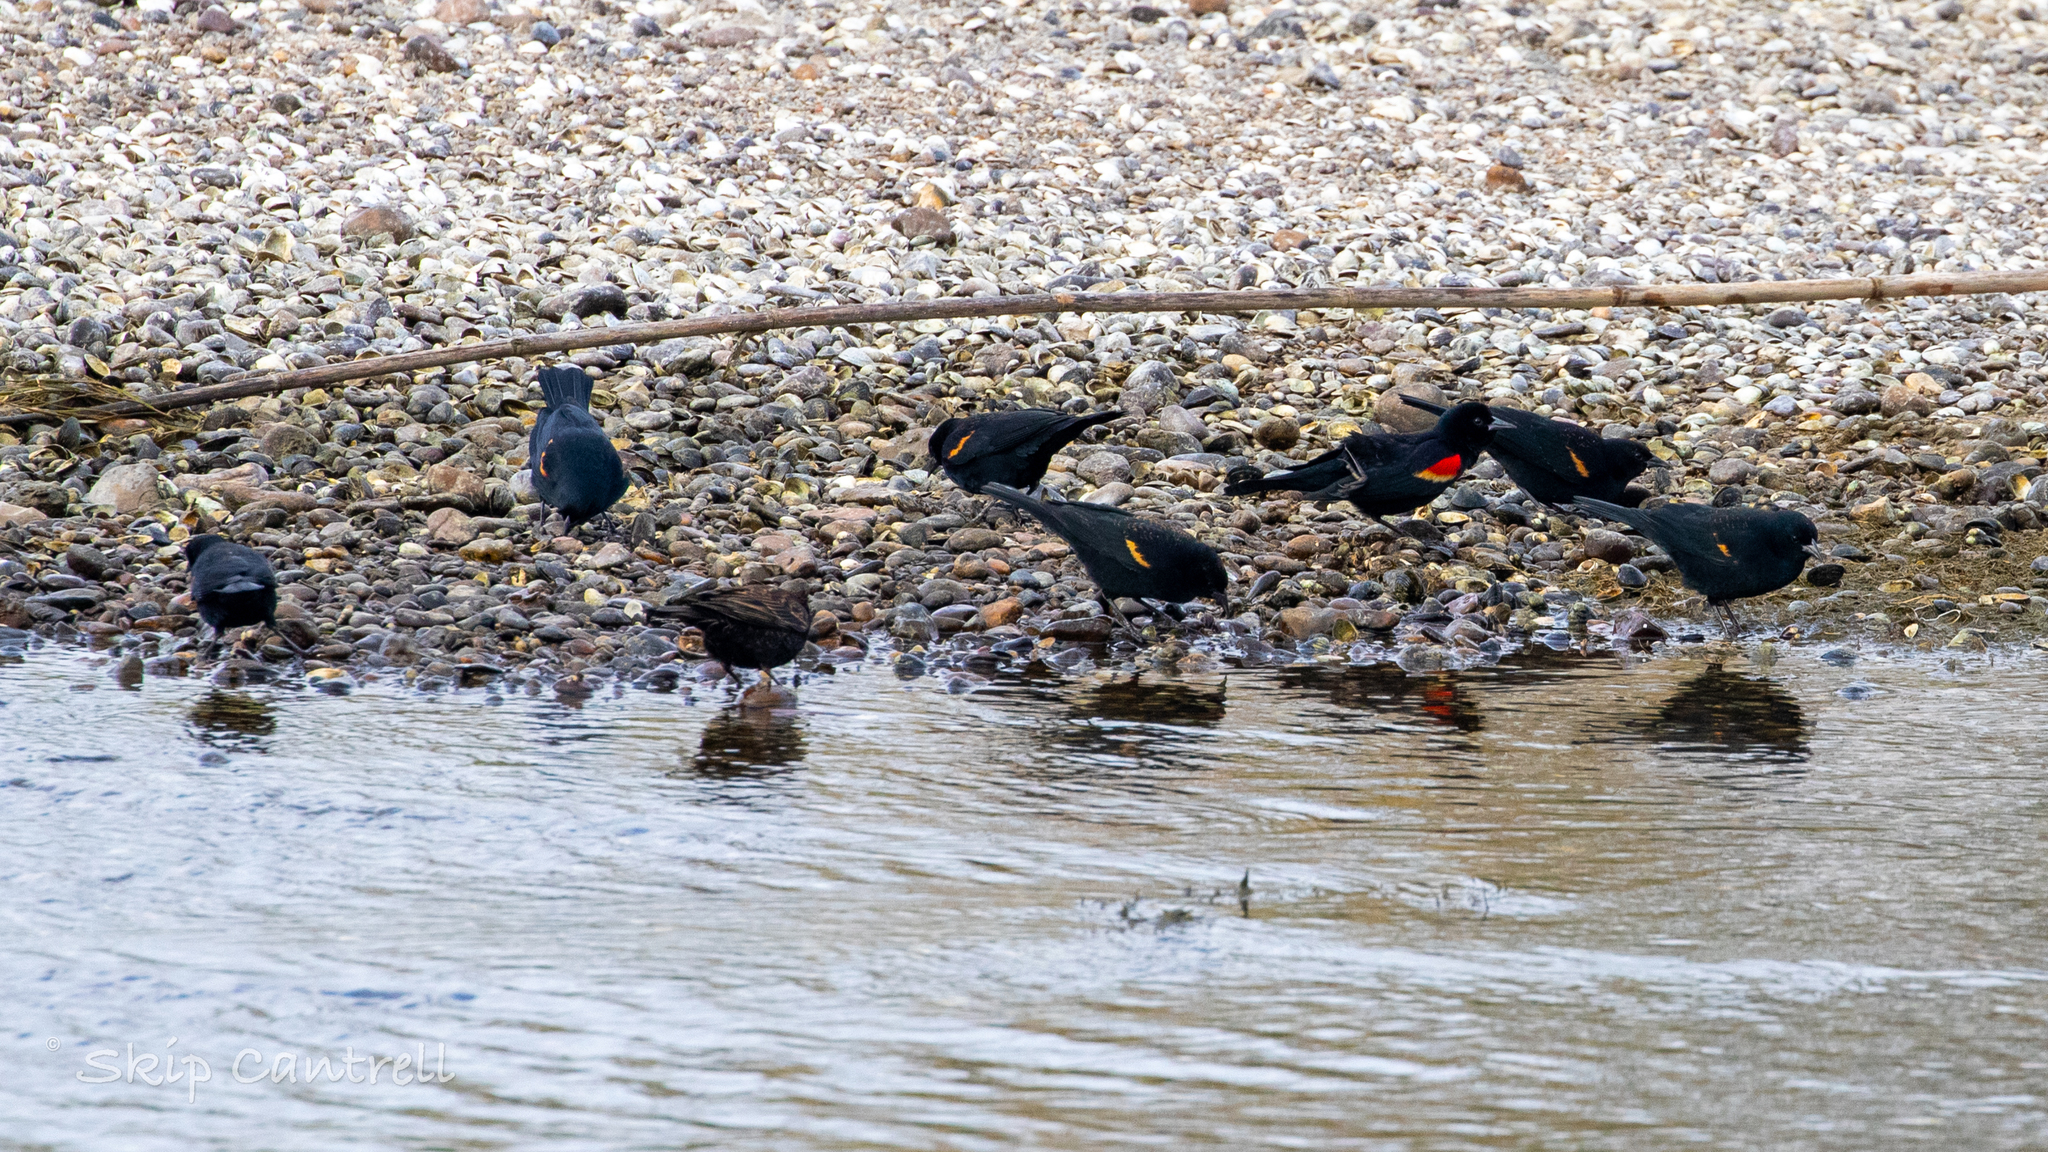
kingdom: Animalia
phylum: Chordata
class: Aves
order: Passeriformes
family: Icteridae
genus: Agelaius
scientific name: Agelaius phoeniceus
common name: Red-winged blackbird
